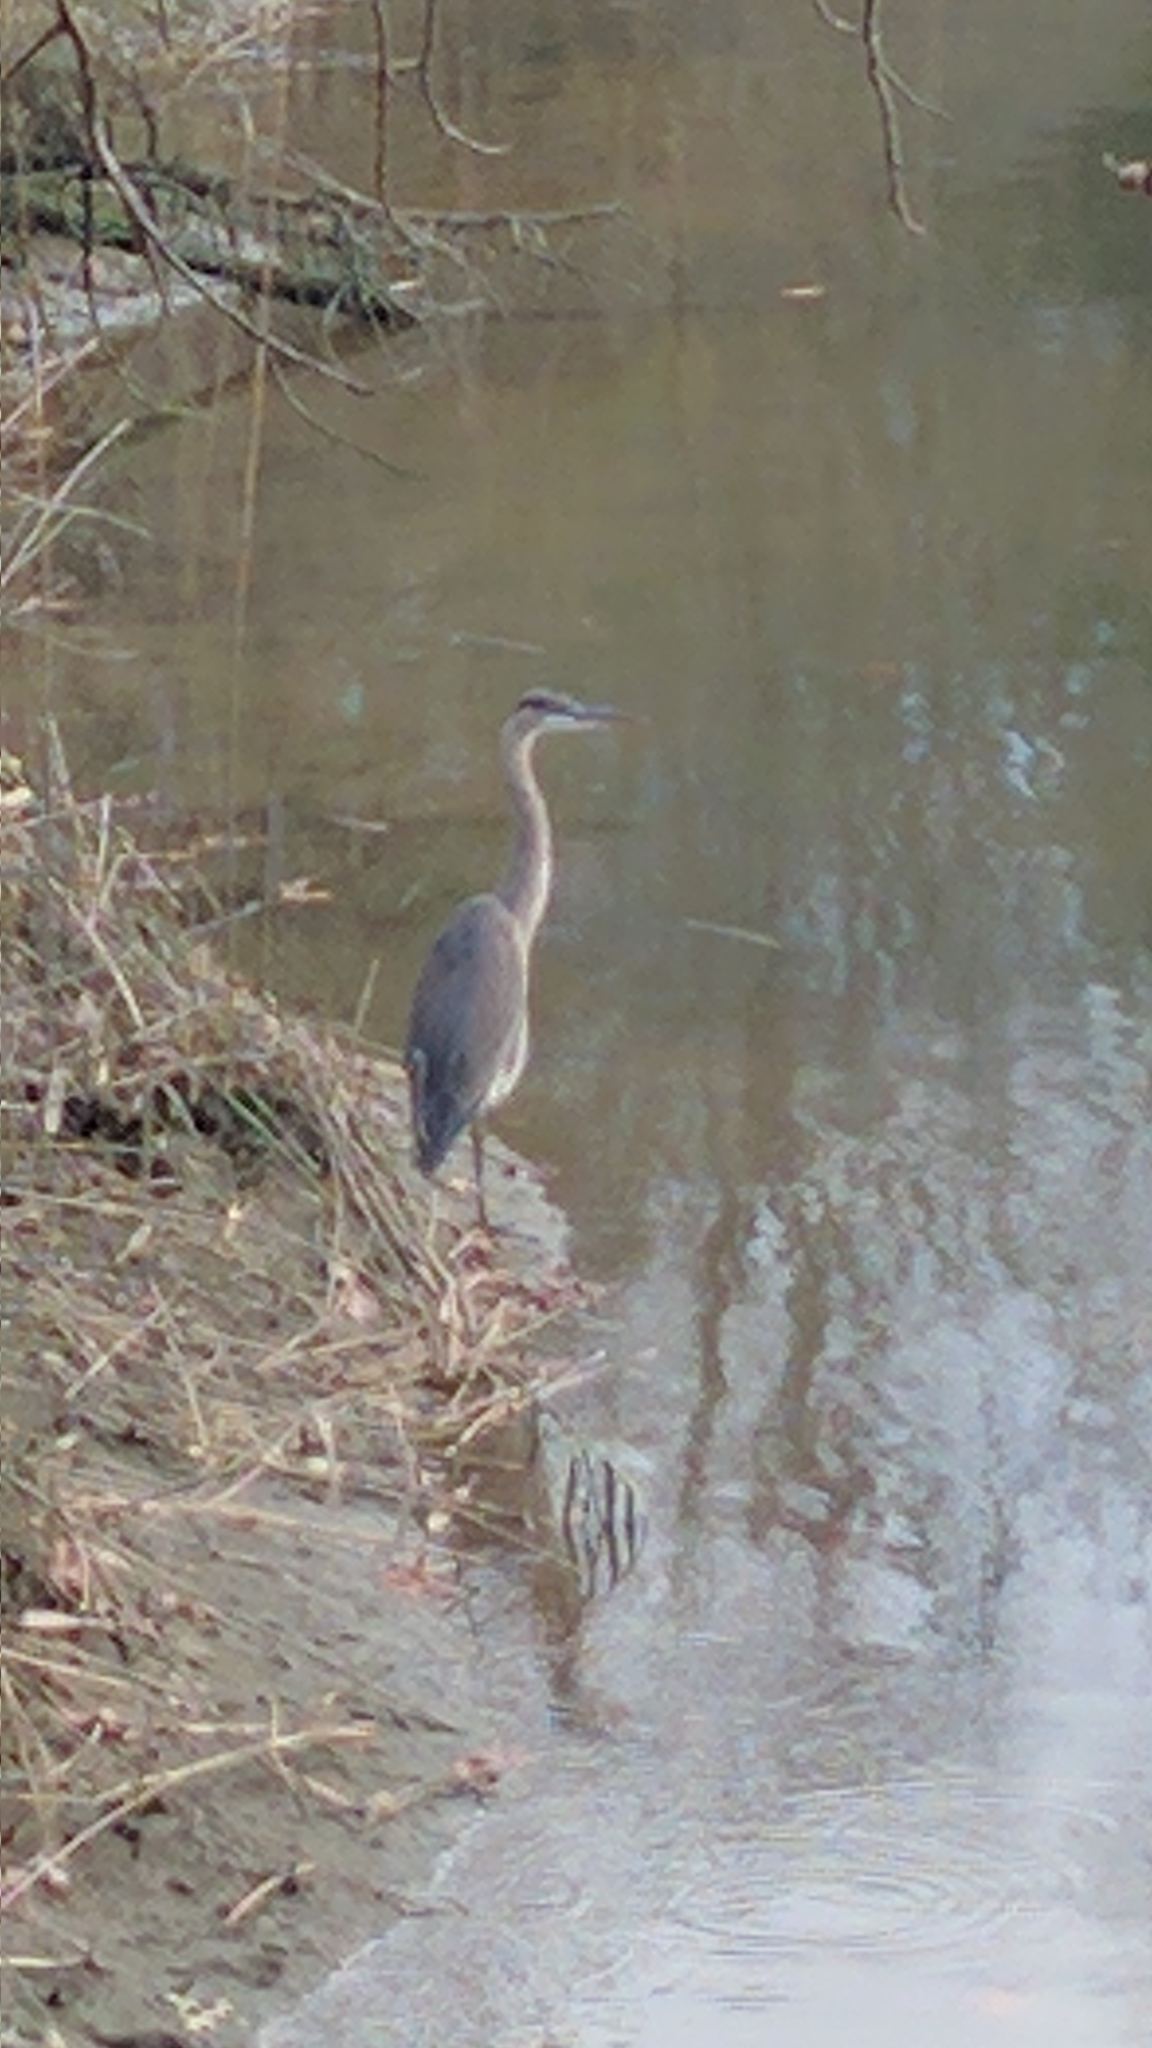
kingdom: Animalia
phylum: Chordata
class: Aves
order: Pelecaniformes
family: Ardeidae
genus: Ardea
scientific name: Ardea herodias
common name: Great blue heron
